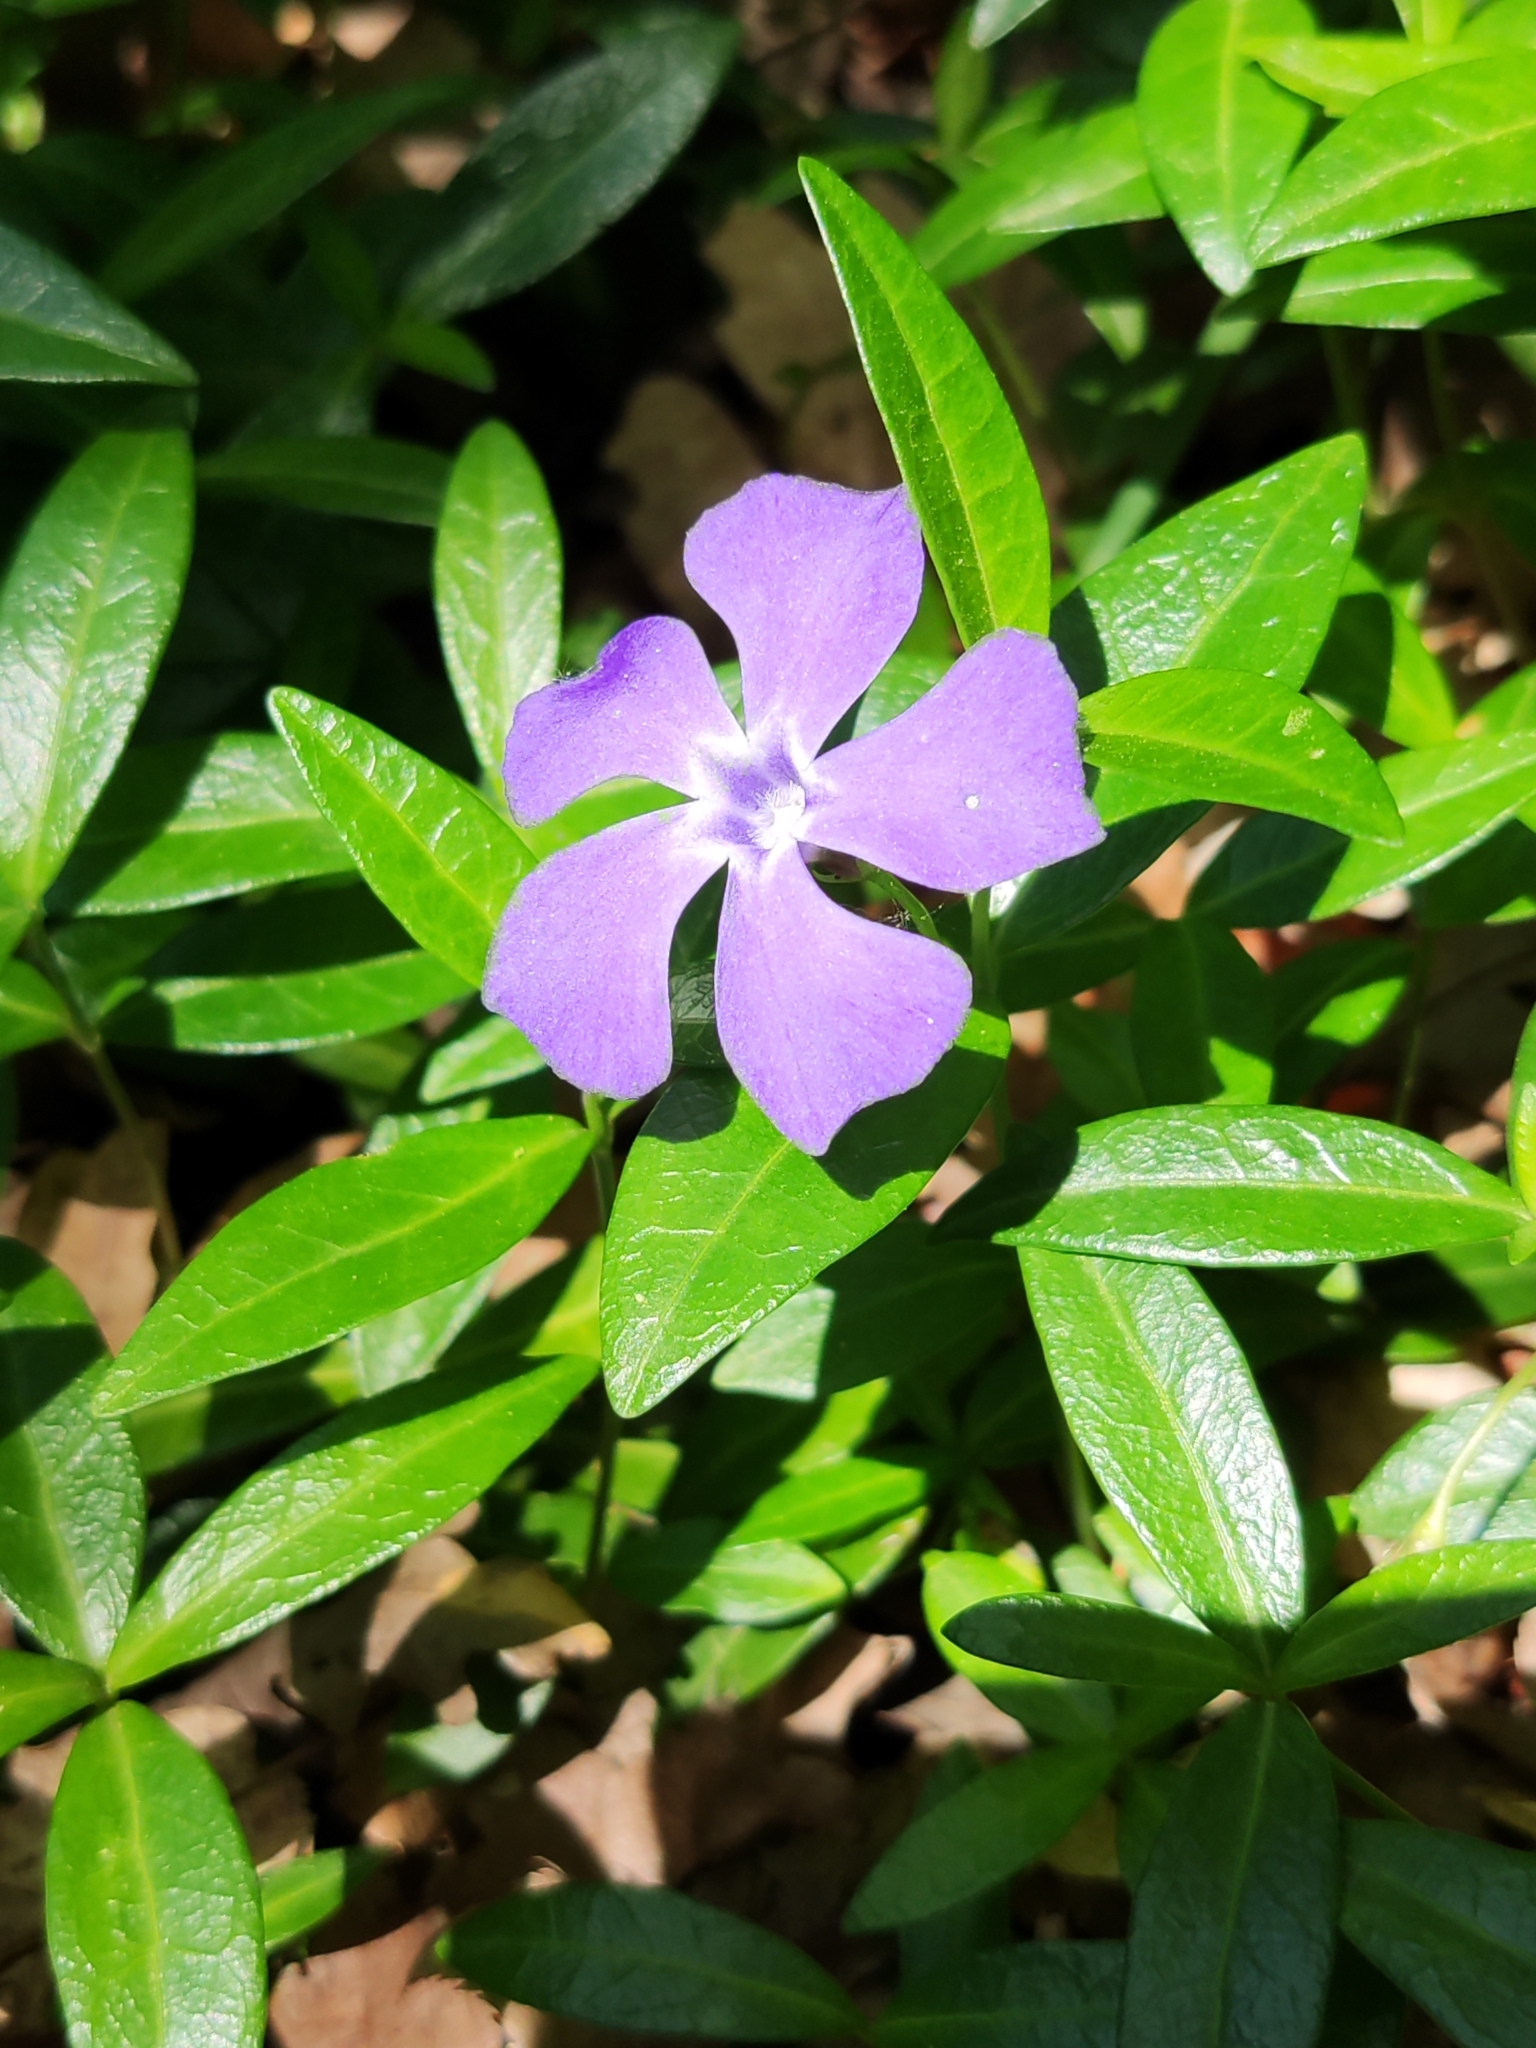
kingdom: Plantae
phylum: Tracheophyta
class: Magnoliopsida
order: Gentianales
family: Apocynaceae
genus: Vinca
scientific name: Vinca minor
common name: Lesser periwinkle
